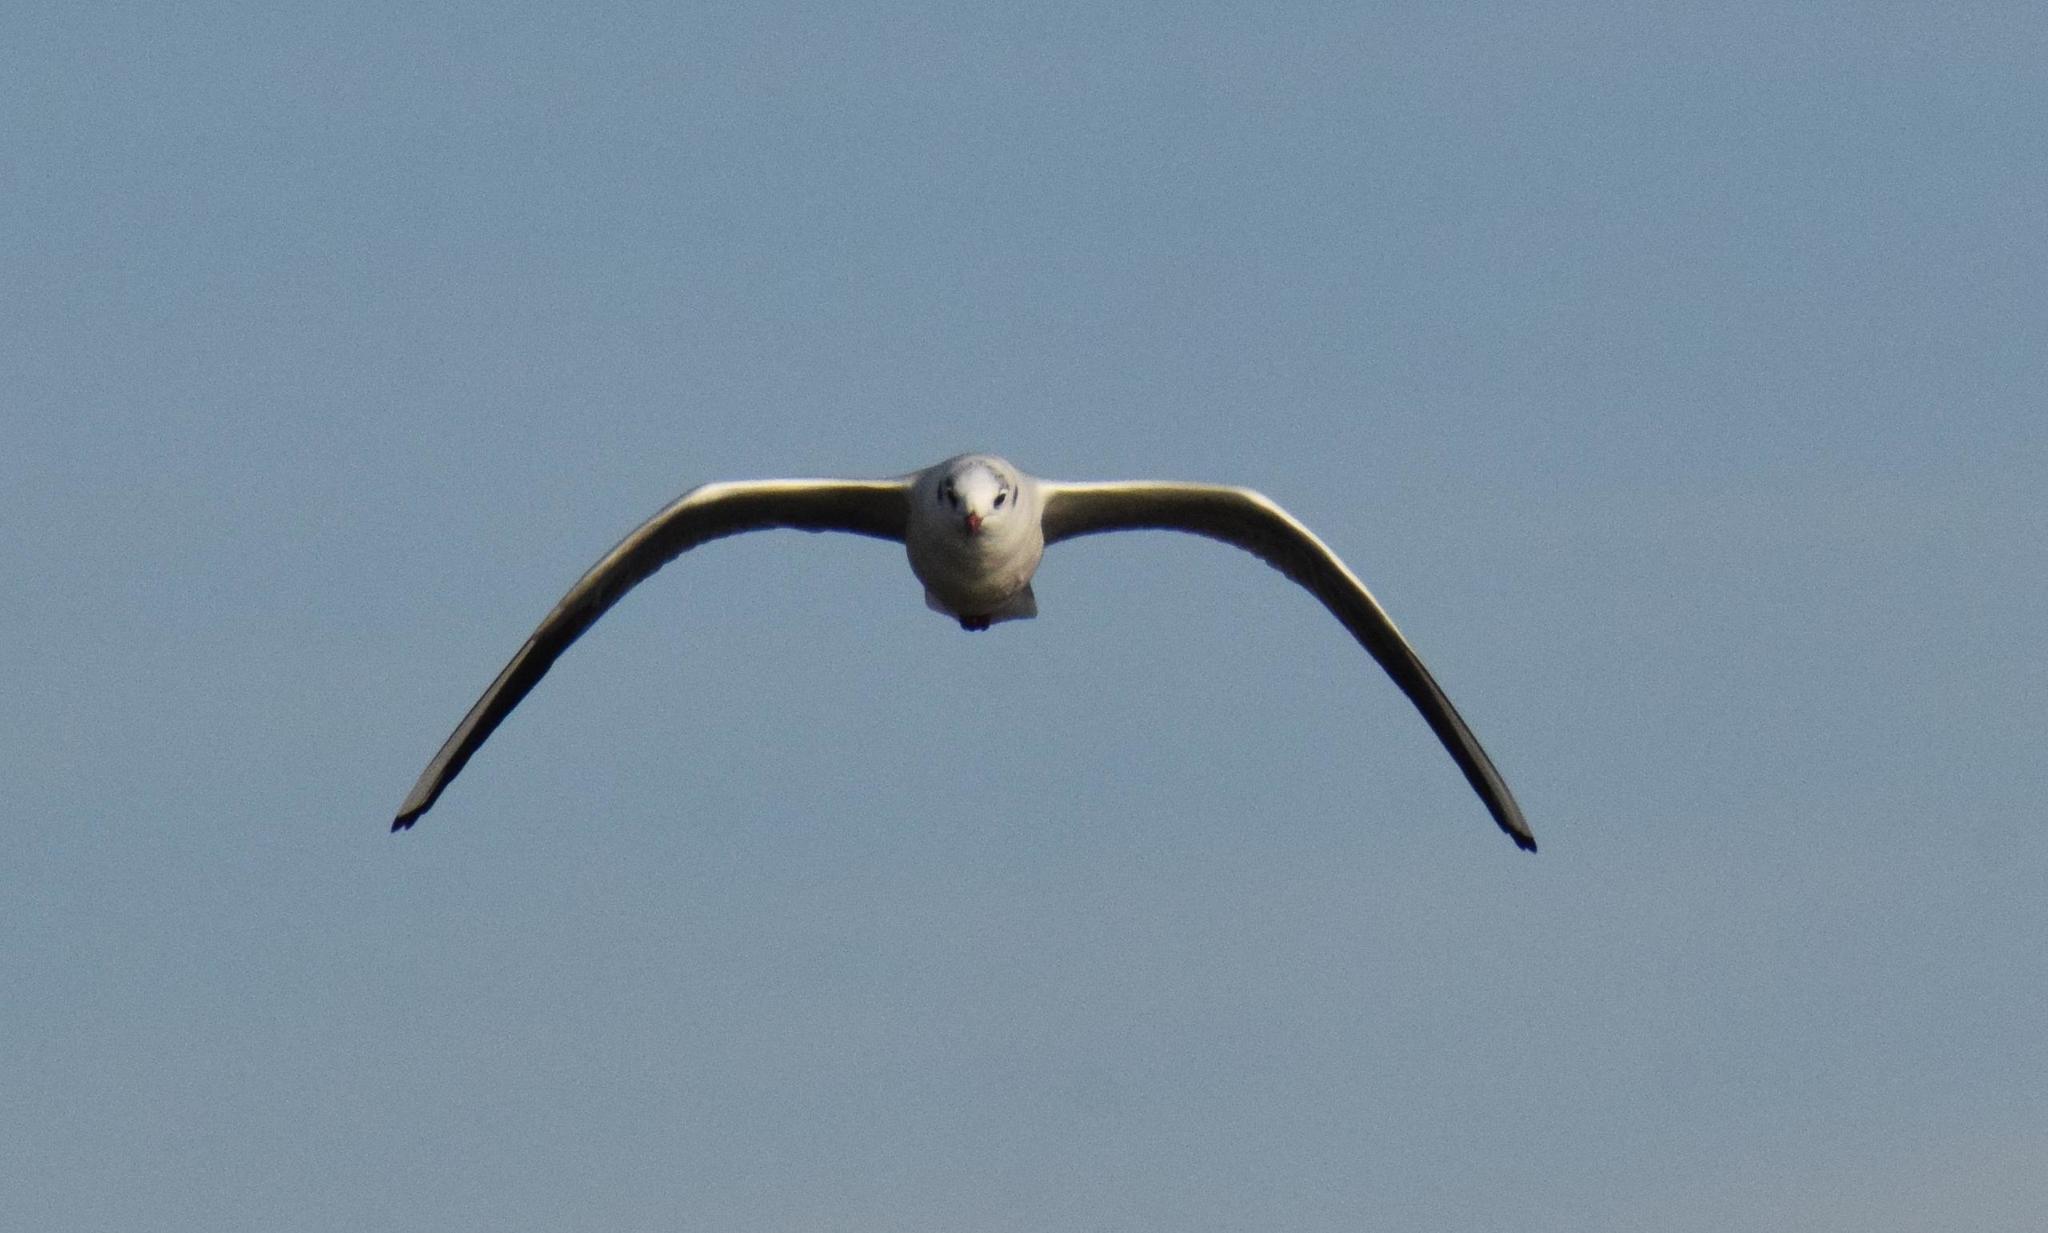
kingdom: Animalia
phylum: Chordata
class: Aves
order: Charadriiformes
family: Laridae
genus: Chroicocephalus
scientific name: Chroicocephalus ridibundus
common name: Black-headed gull
